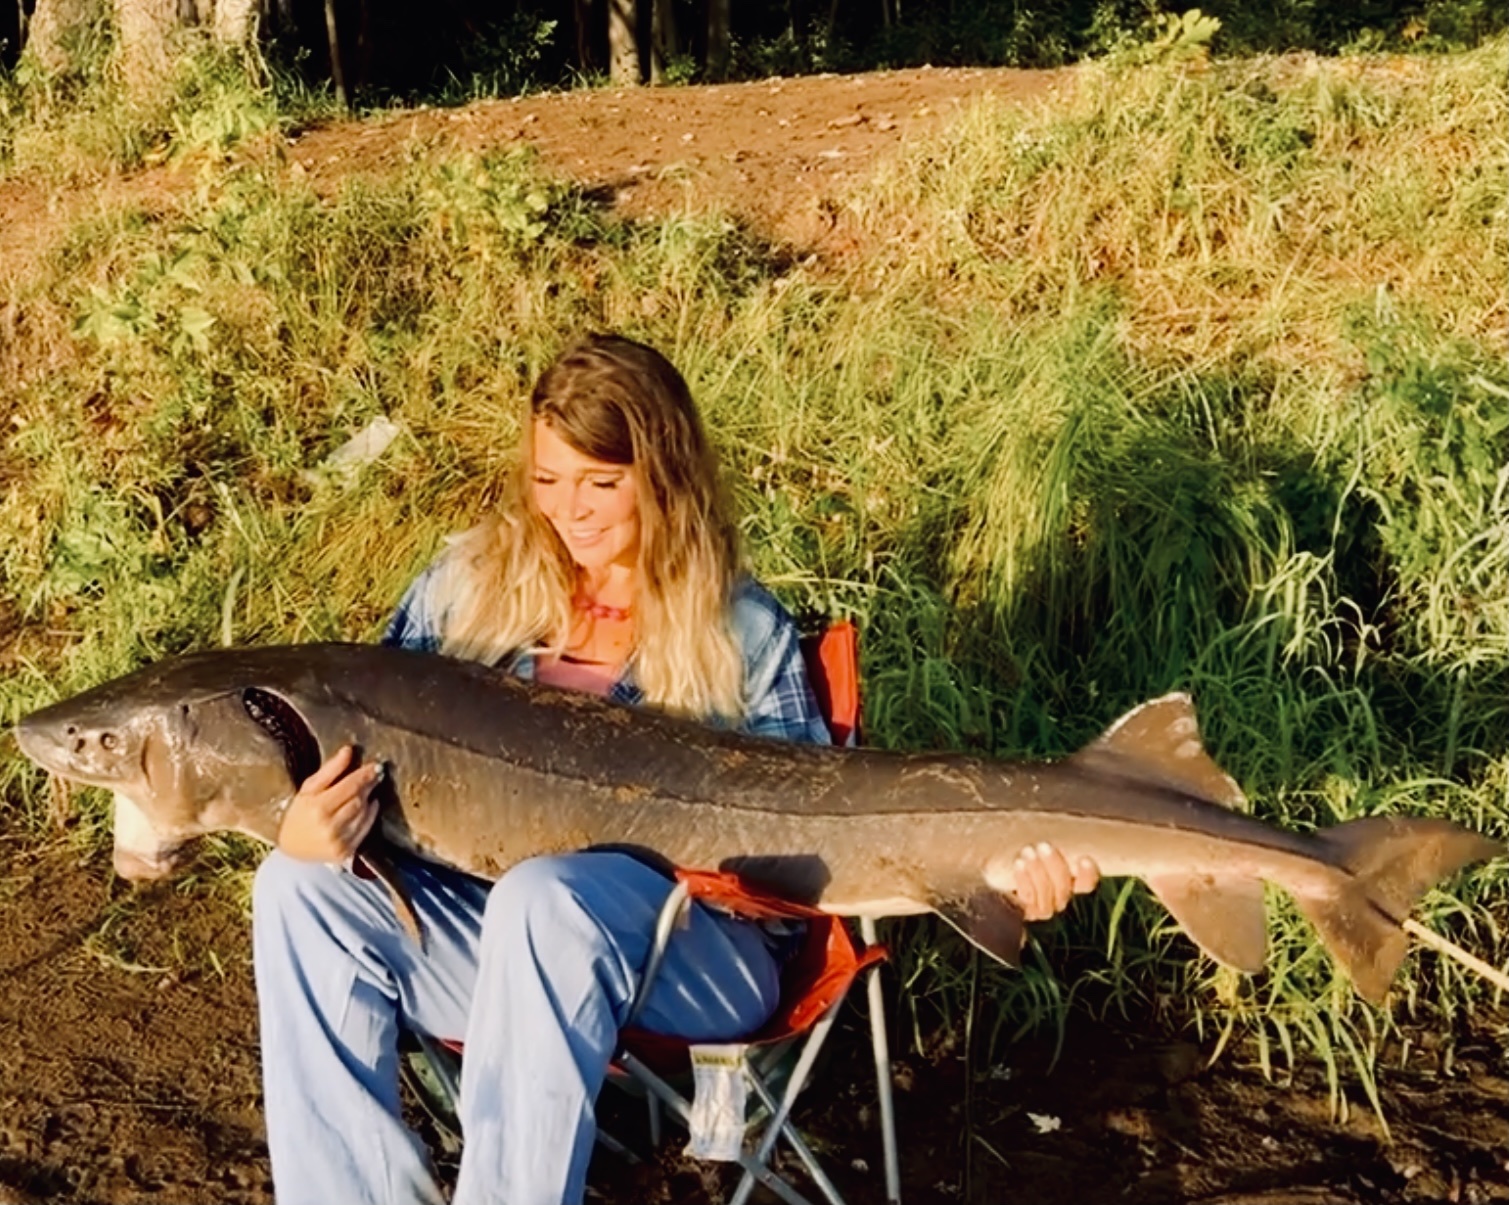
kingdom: Animalia
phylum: Chordata
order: Acipenseriformes
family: Acipenseridae
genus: Acipenser
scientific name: Acipenser fulvescens
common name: Lake sturgeon
